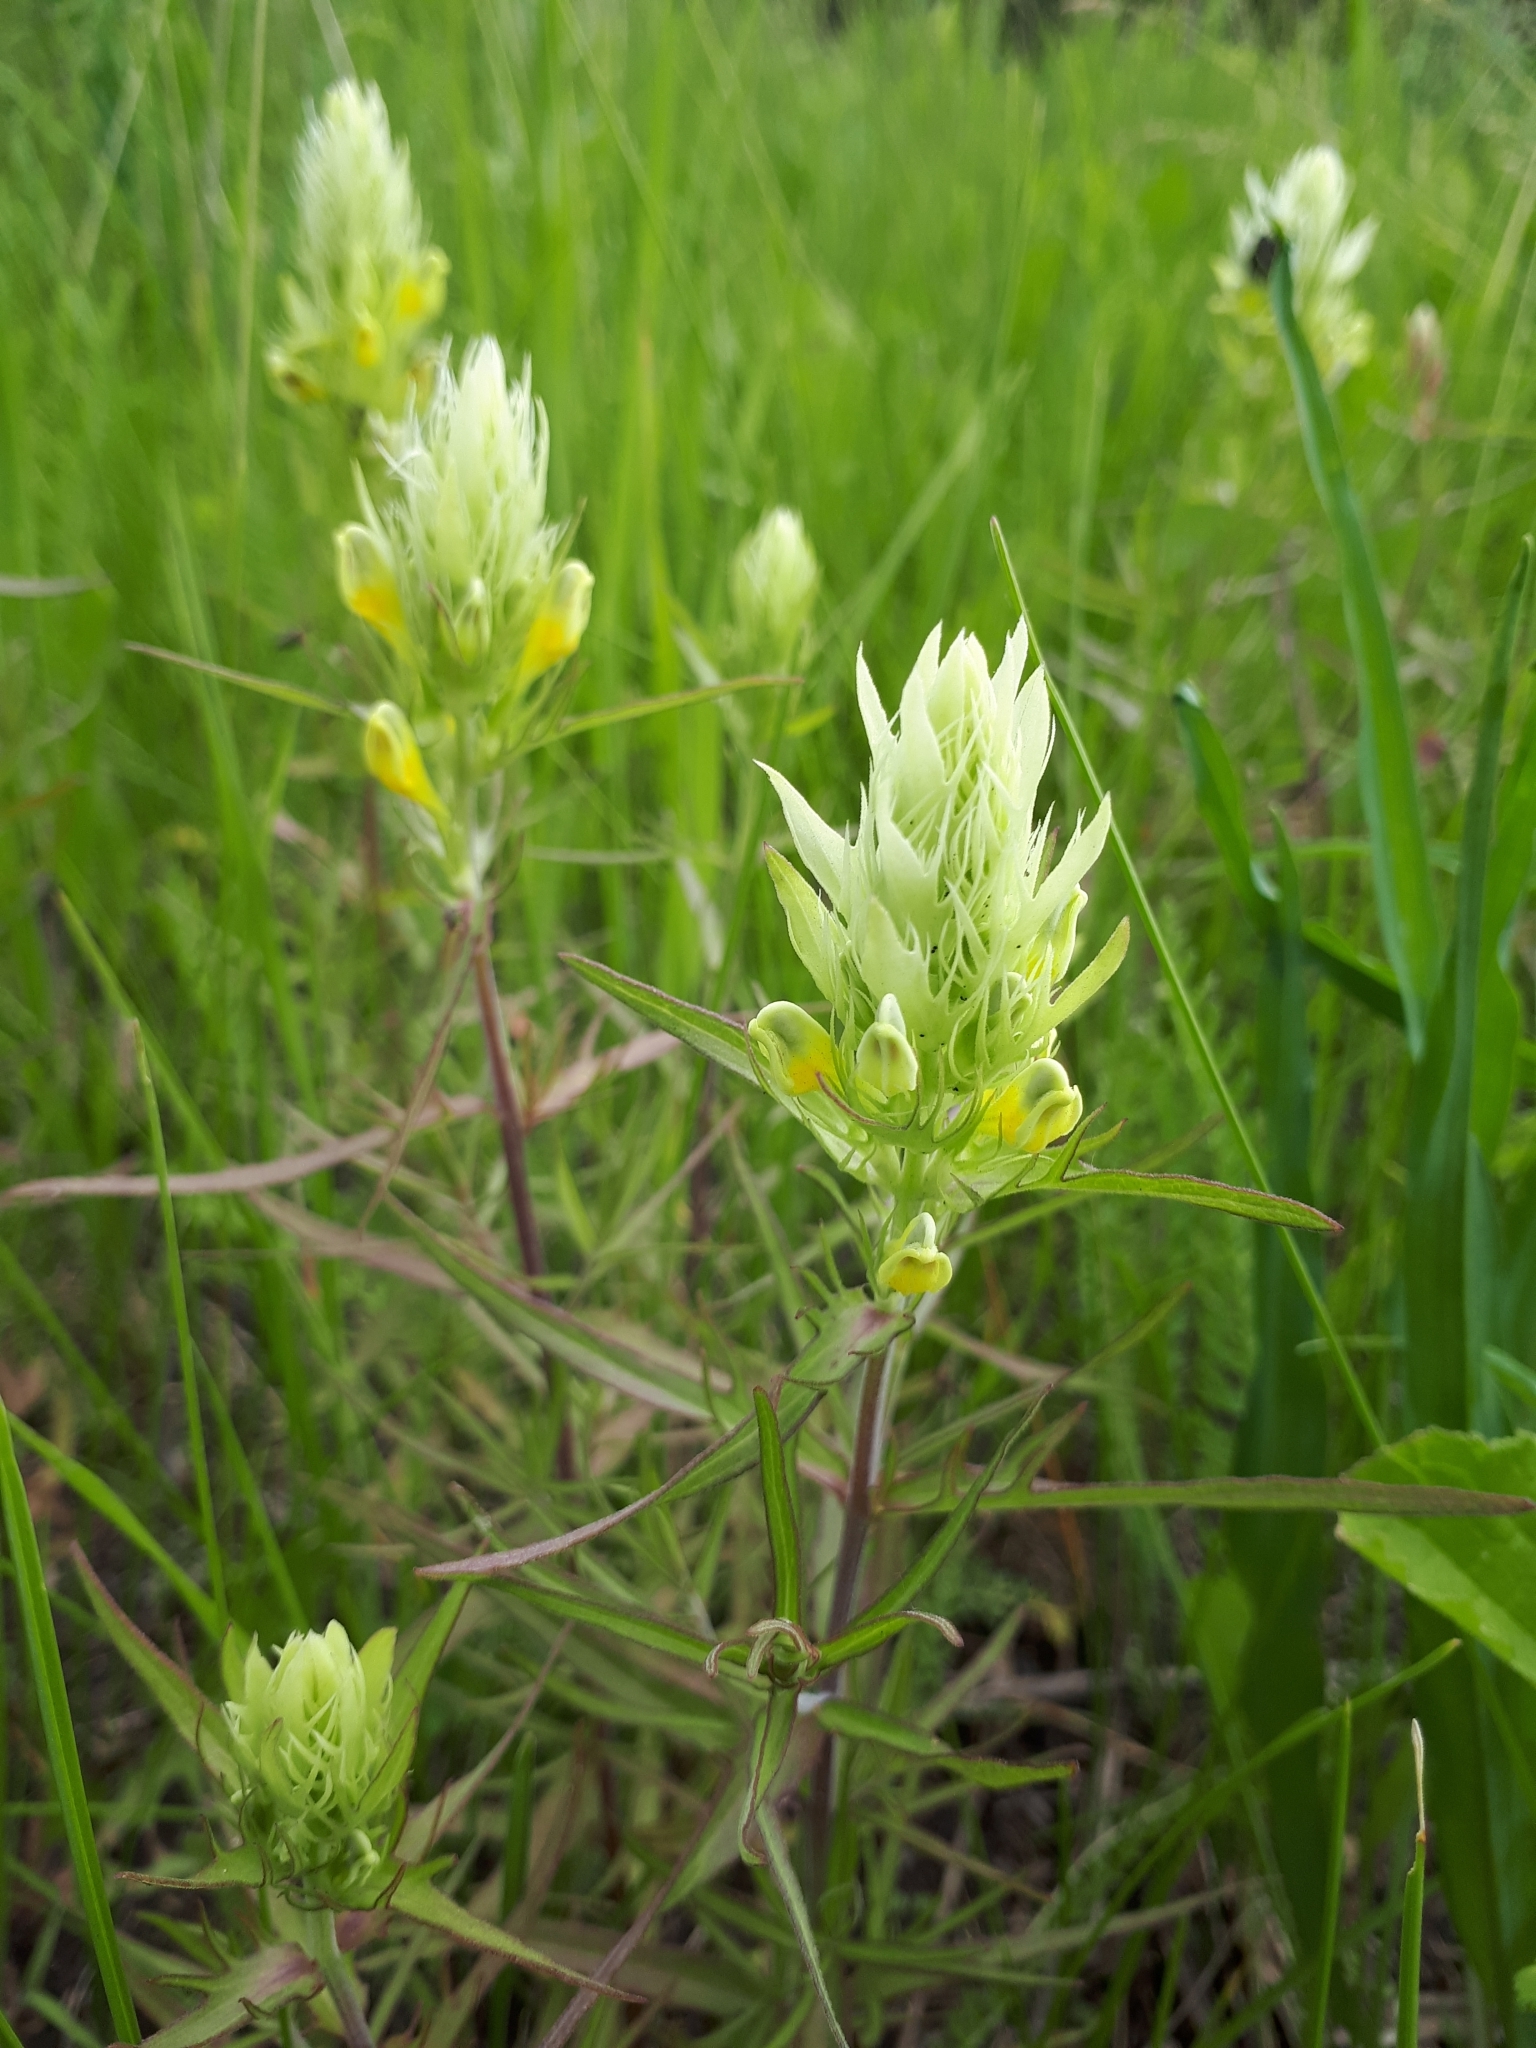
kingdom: Plantae
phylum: Tracheophyta
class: Magnoliopsida
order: Lamiales
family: Orobanchaceae
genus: Melampyrum
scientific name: Melampyrum arvense
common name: Field cow-wheat
